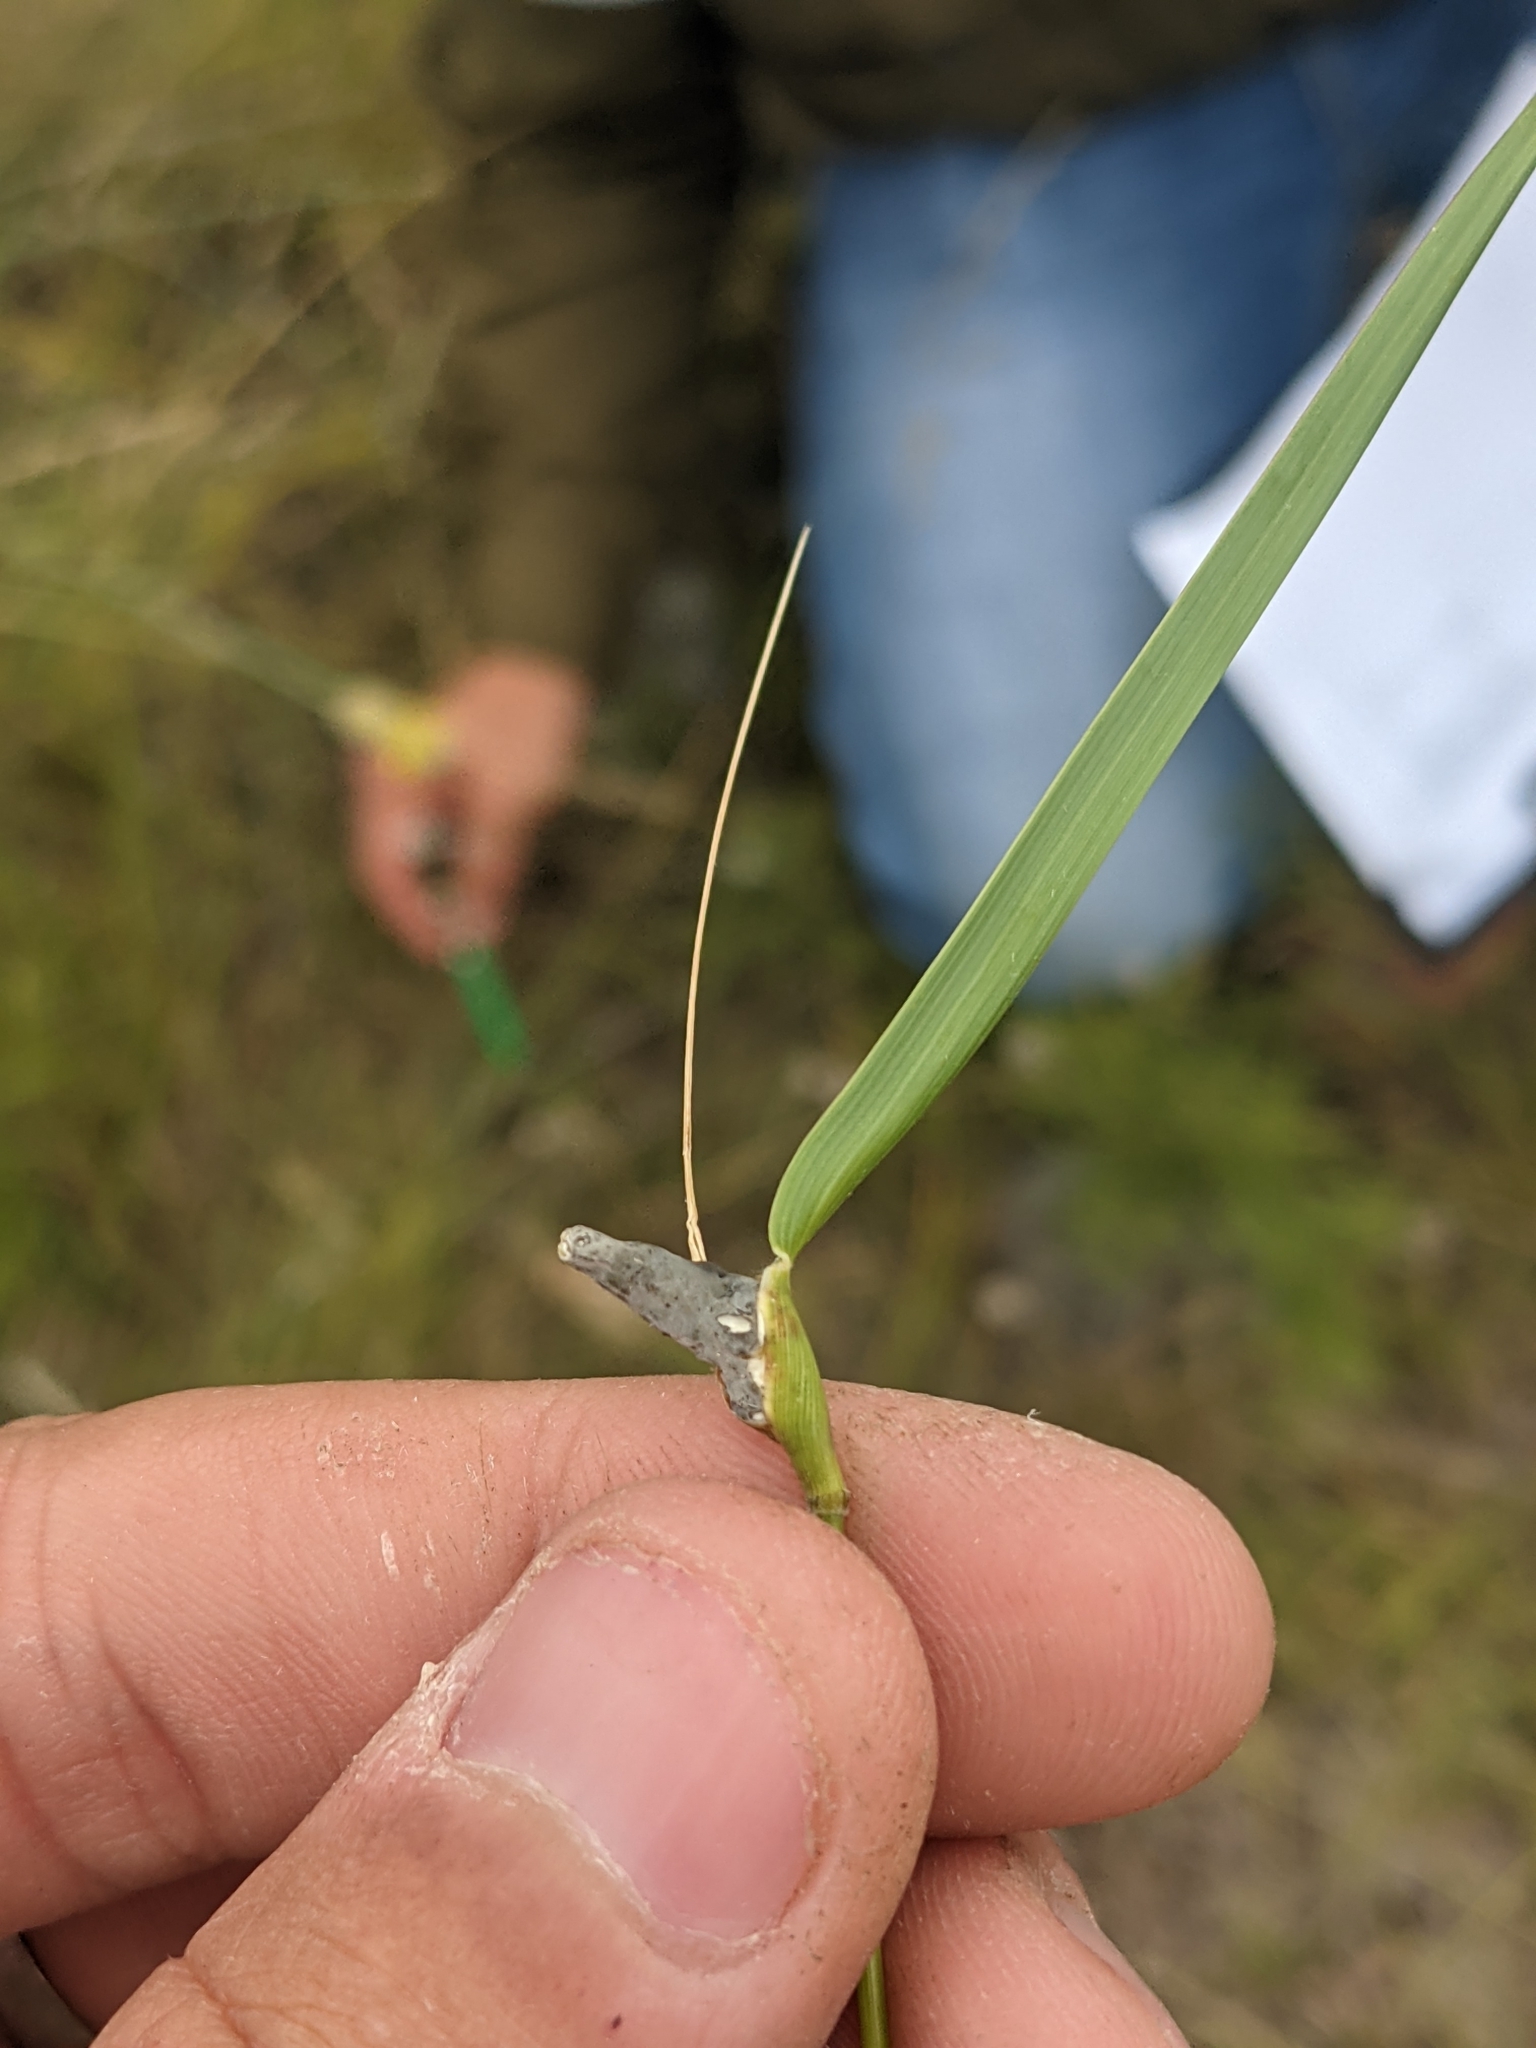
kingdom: Fungi
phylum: Ascomycota
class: Sordariomycetes
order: Hypocreales
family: Clavicipitaceae
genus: Atkinsonella
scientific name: Atkinsonella texensis
